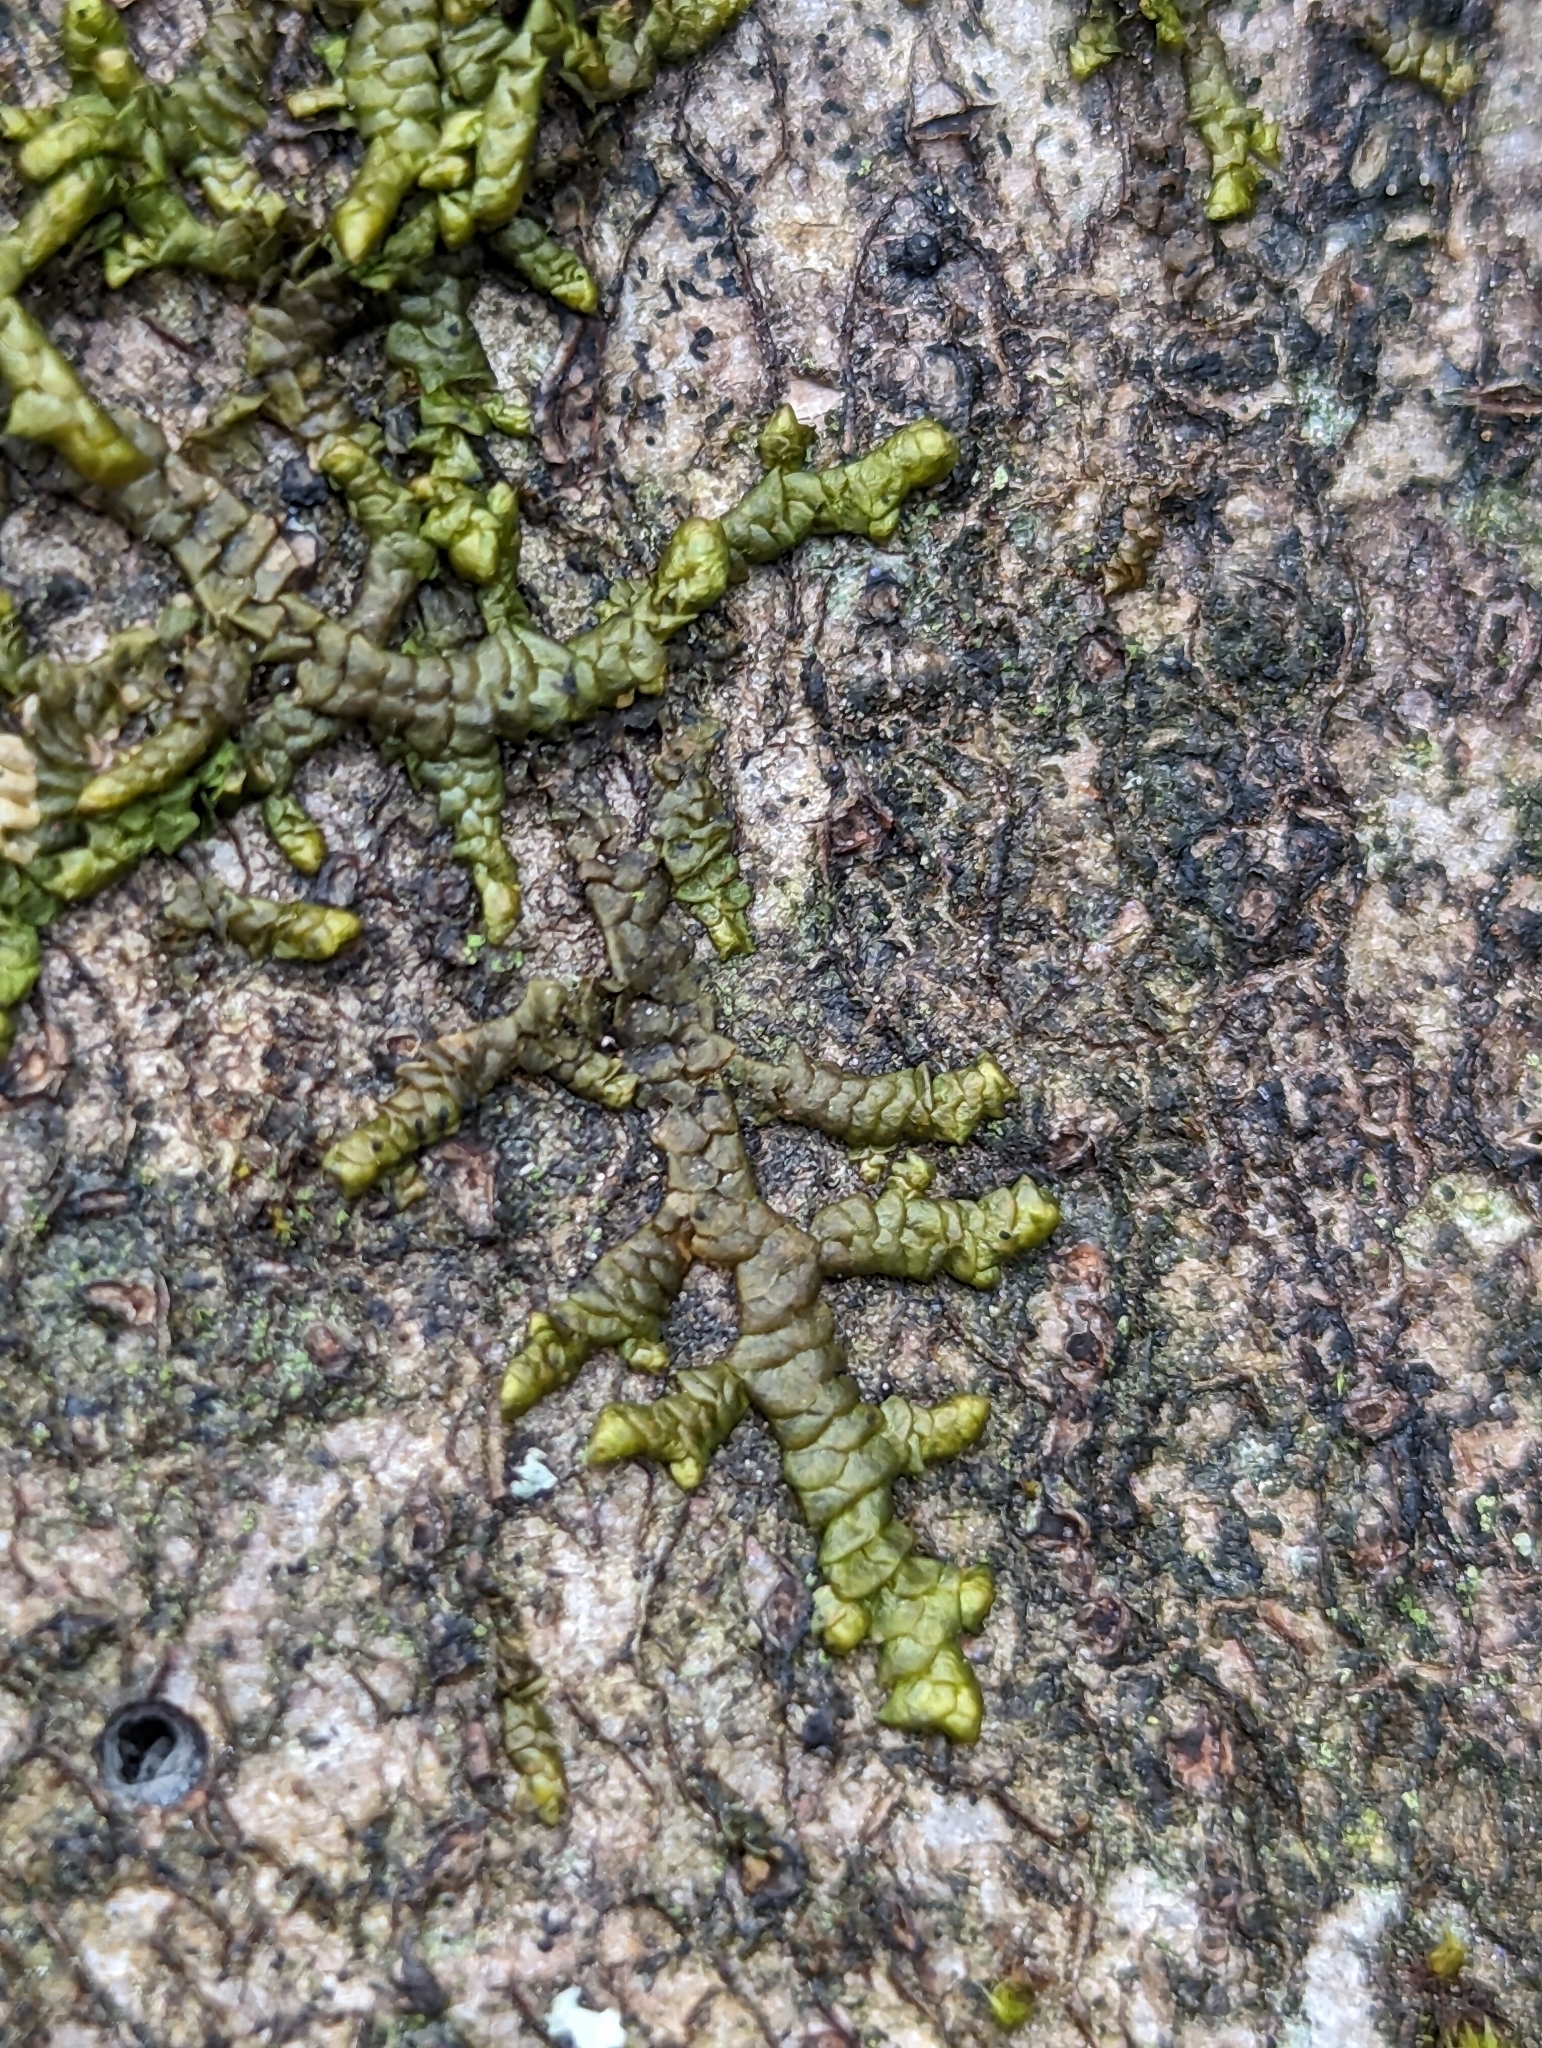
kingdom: Plantae
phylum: Marchantiophyta
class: Jungermanniopsida
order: Porellales
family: Porellaceae
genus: Porella
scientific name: Porella navicularis
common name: Tree ruffle liverwort
